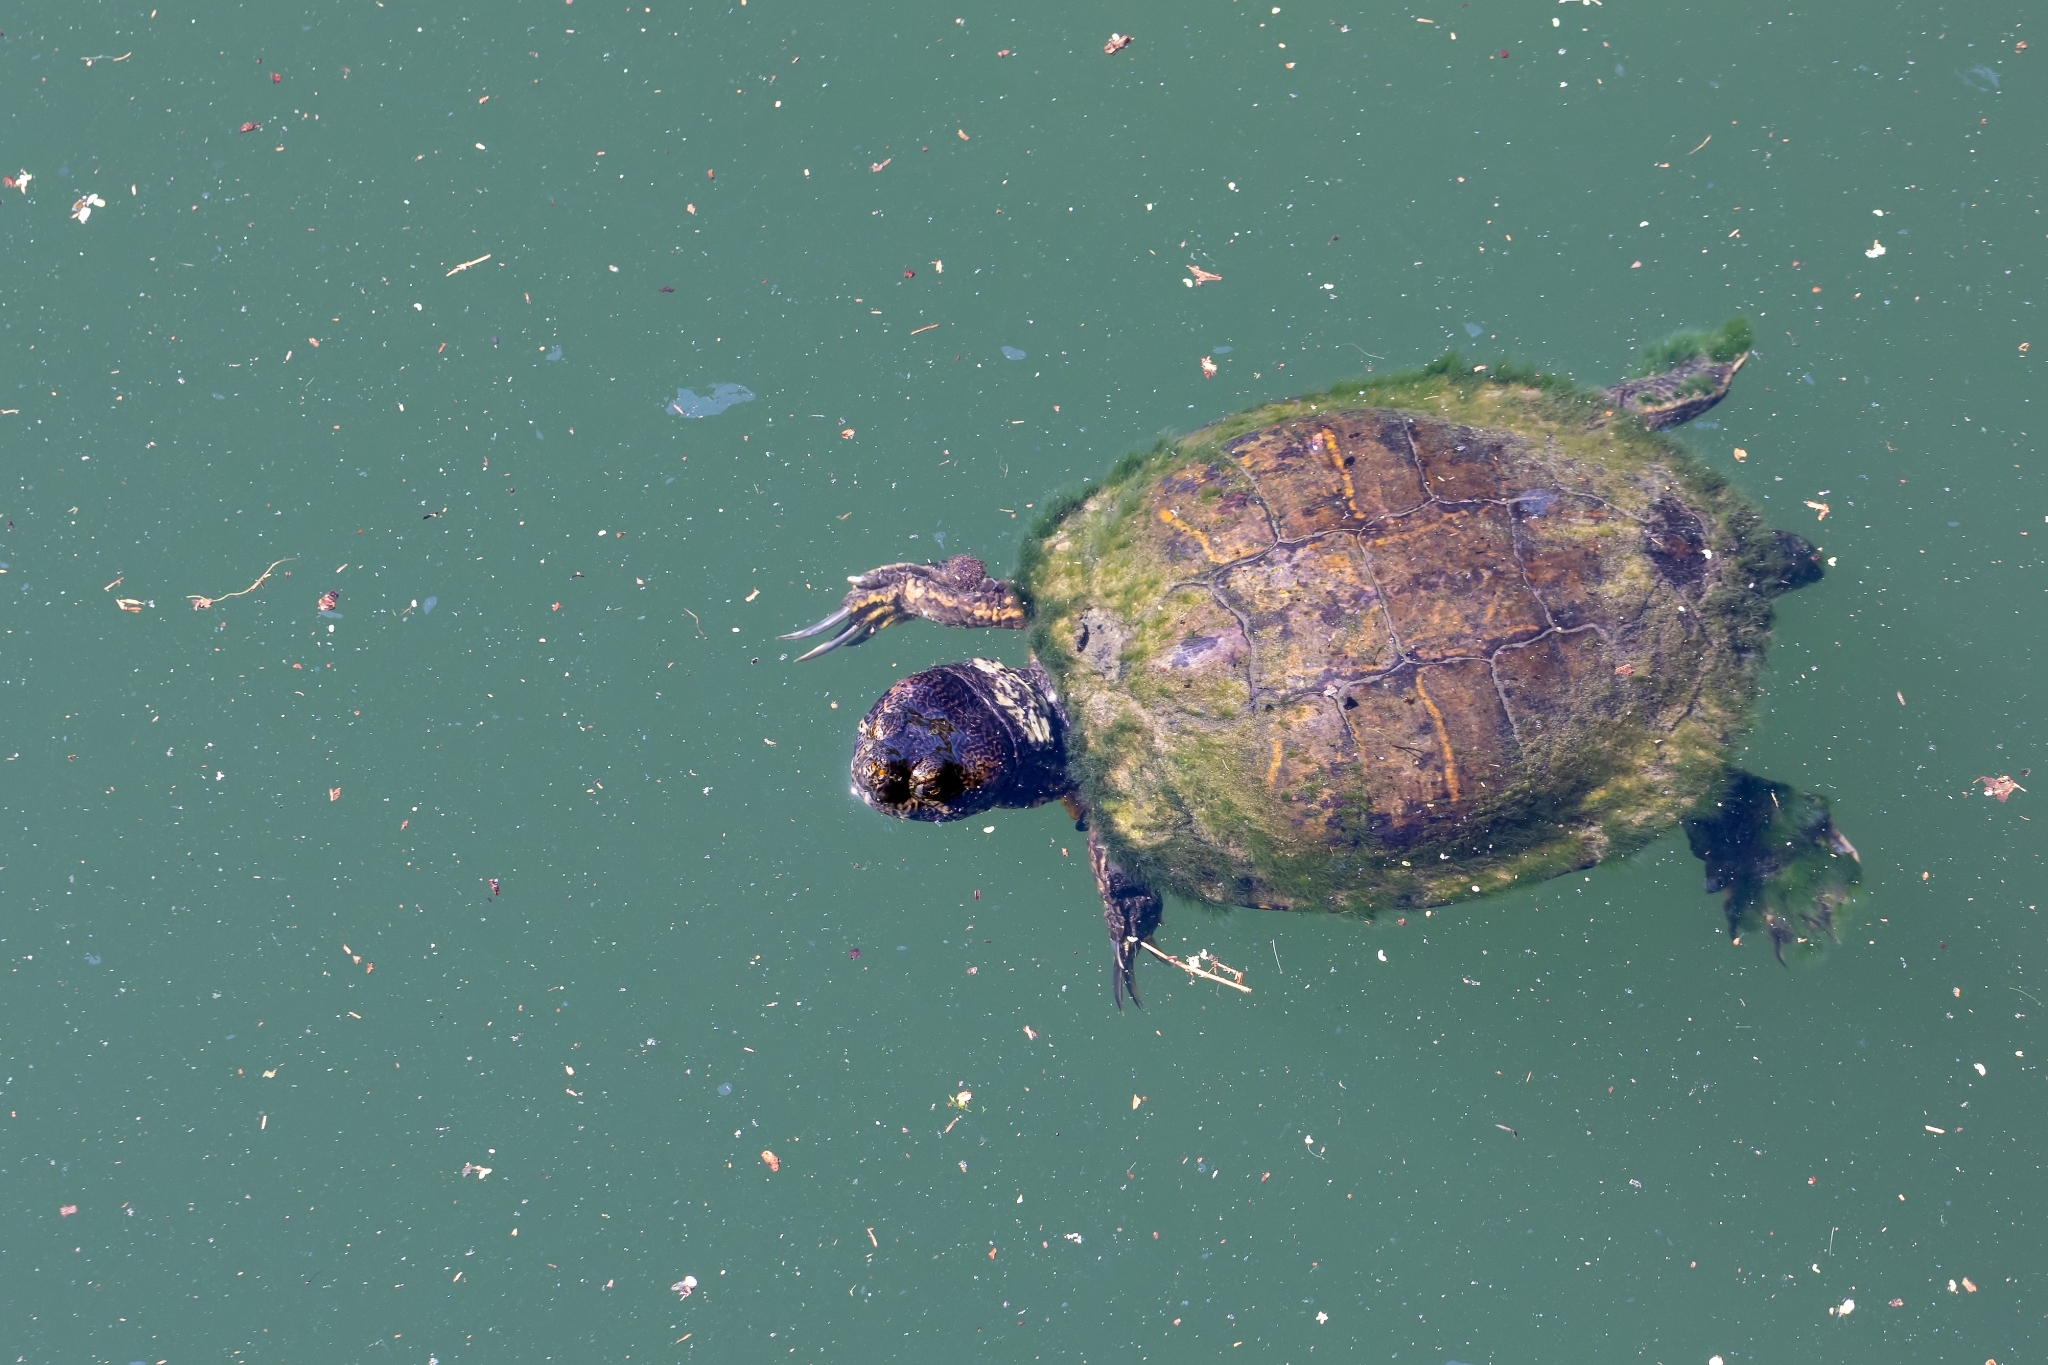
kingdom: Animalia
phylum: Chordata
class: Testudines
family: Emydidae
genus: Trachemys
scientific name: Trachemys scripta
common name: Slider
